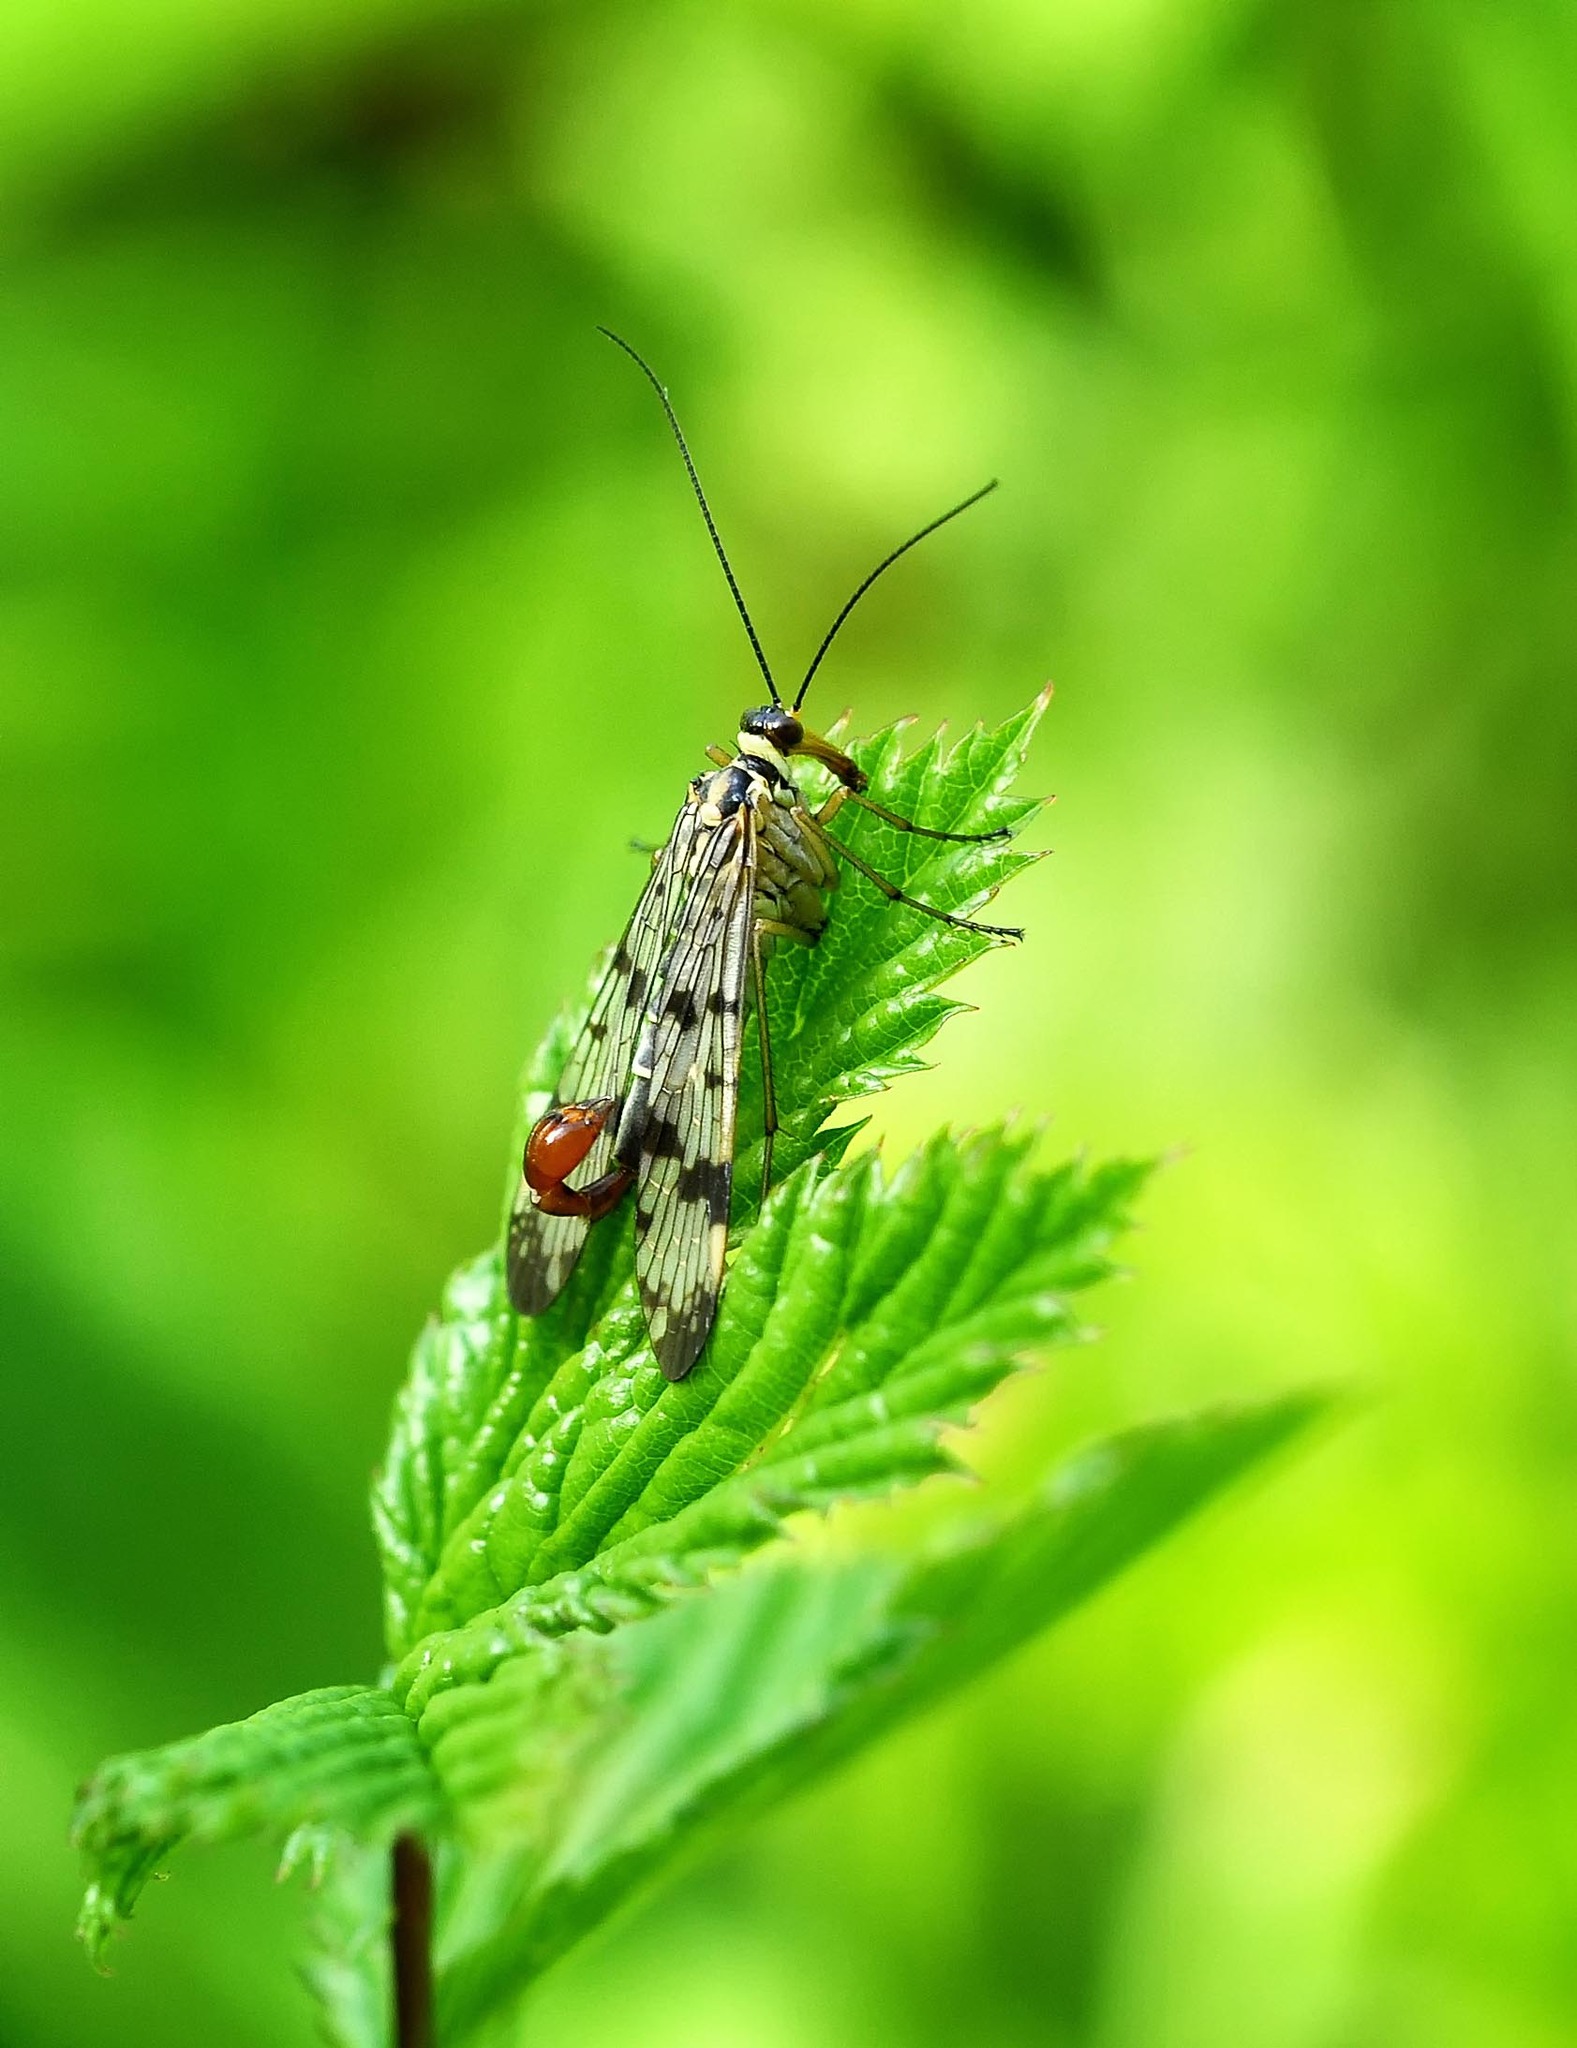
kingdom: Animalia
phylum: Arthropoda
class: Insecta
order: Mecoptera
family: Panorpidae
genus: Panorpa
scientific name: Panorpa communis
